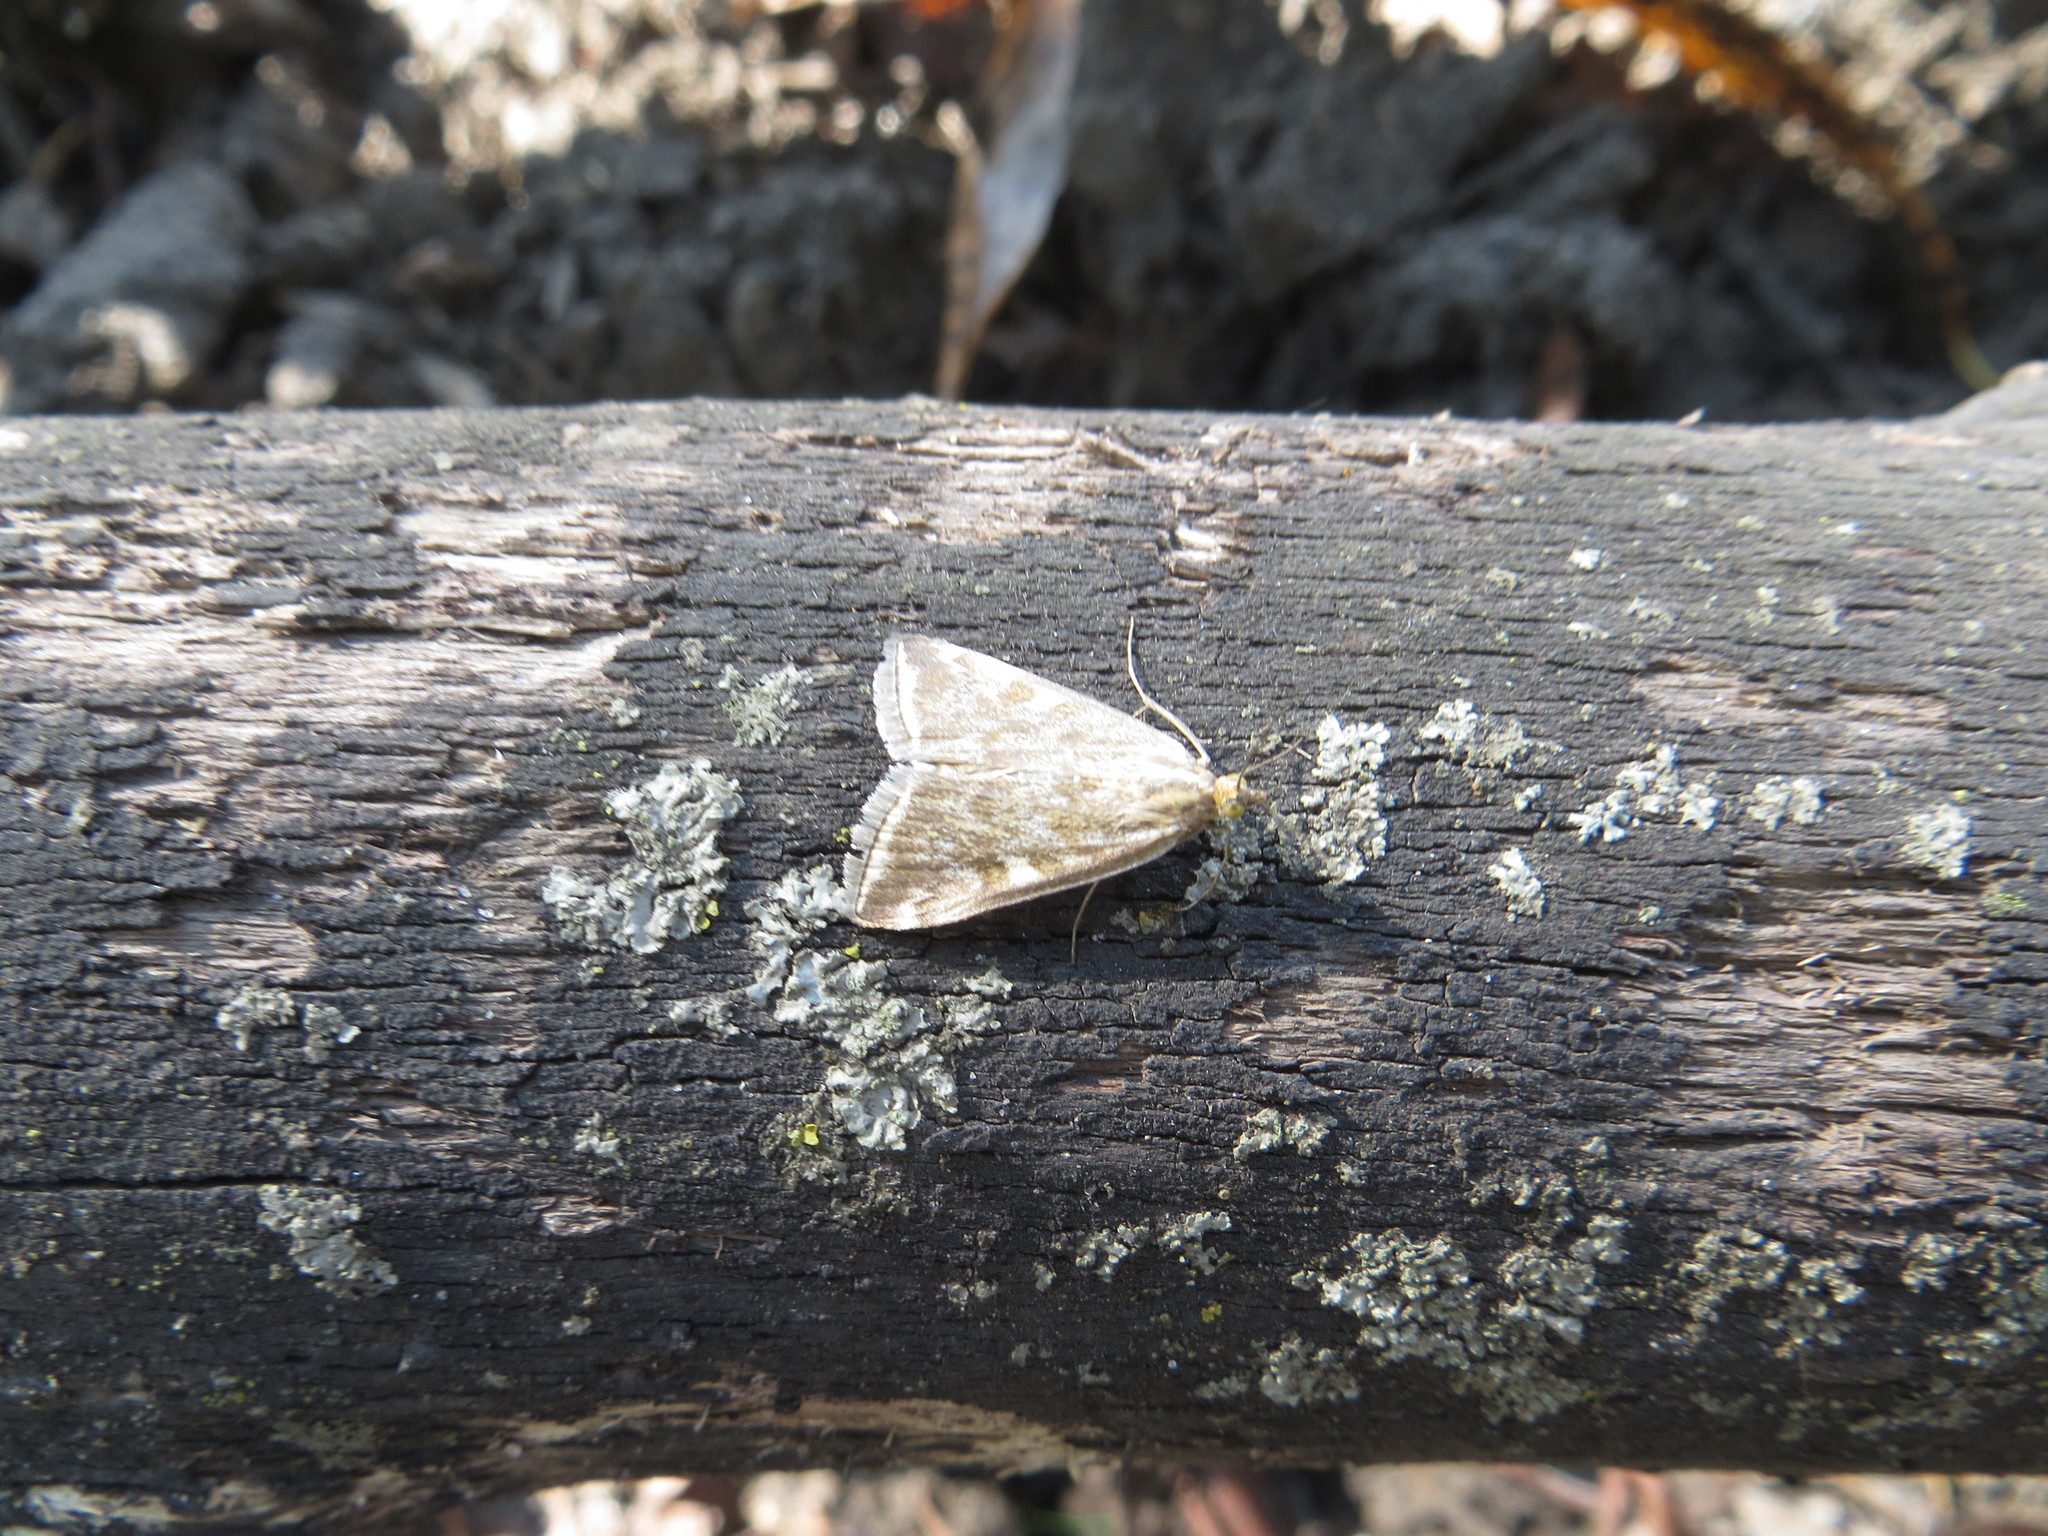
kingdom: Animalia
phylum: Arthropoda
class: Insecta
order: Lepidoptera
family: Crambidae
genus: Loxostege
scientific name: Loxostege sticticalis
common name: Crambid moth
